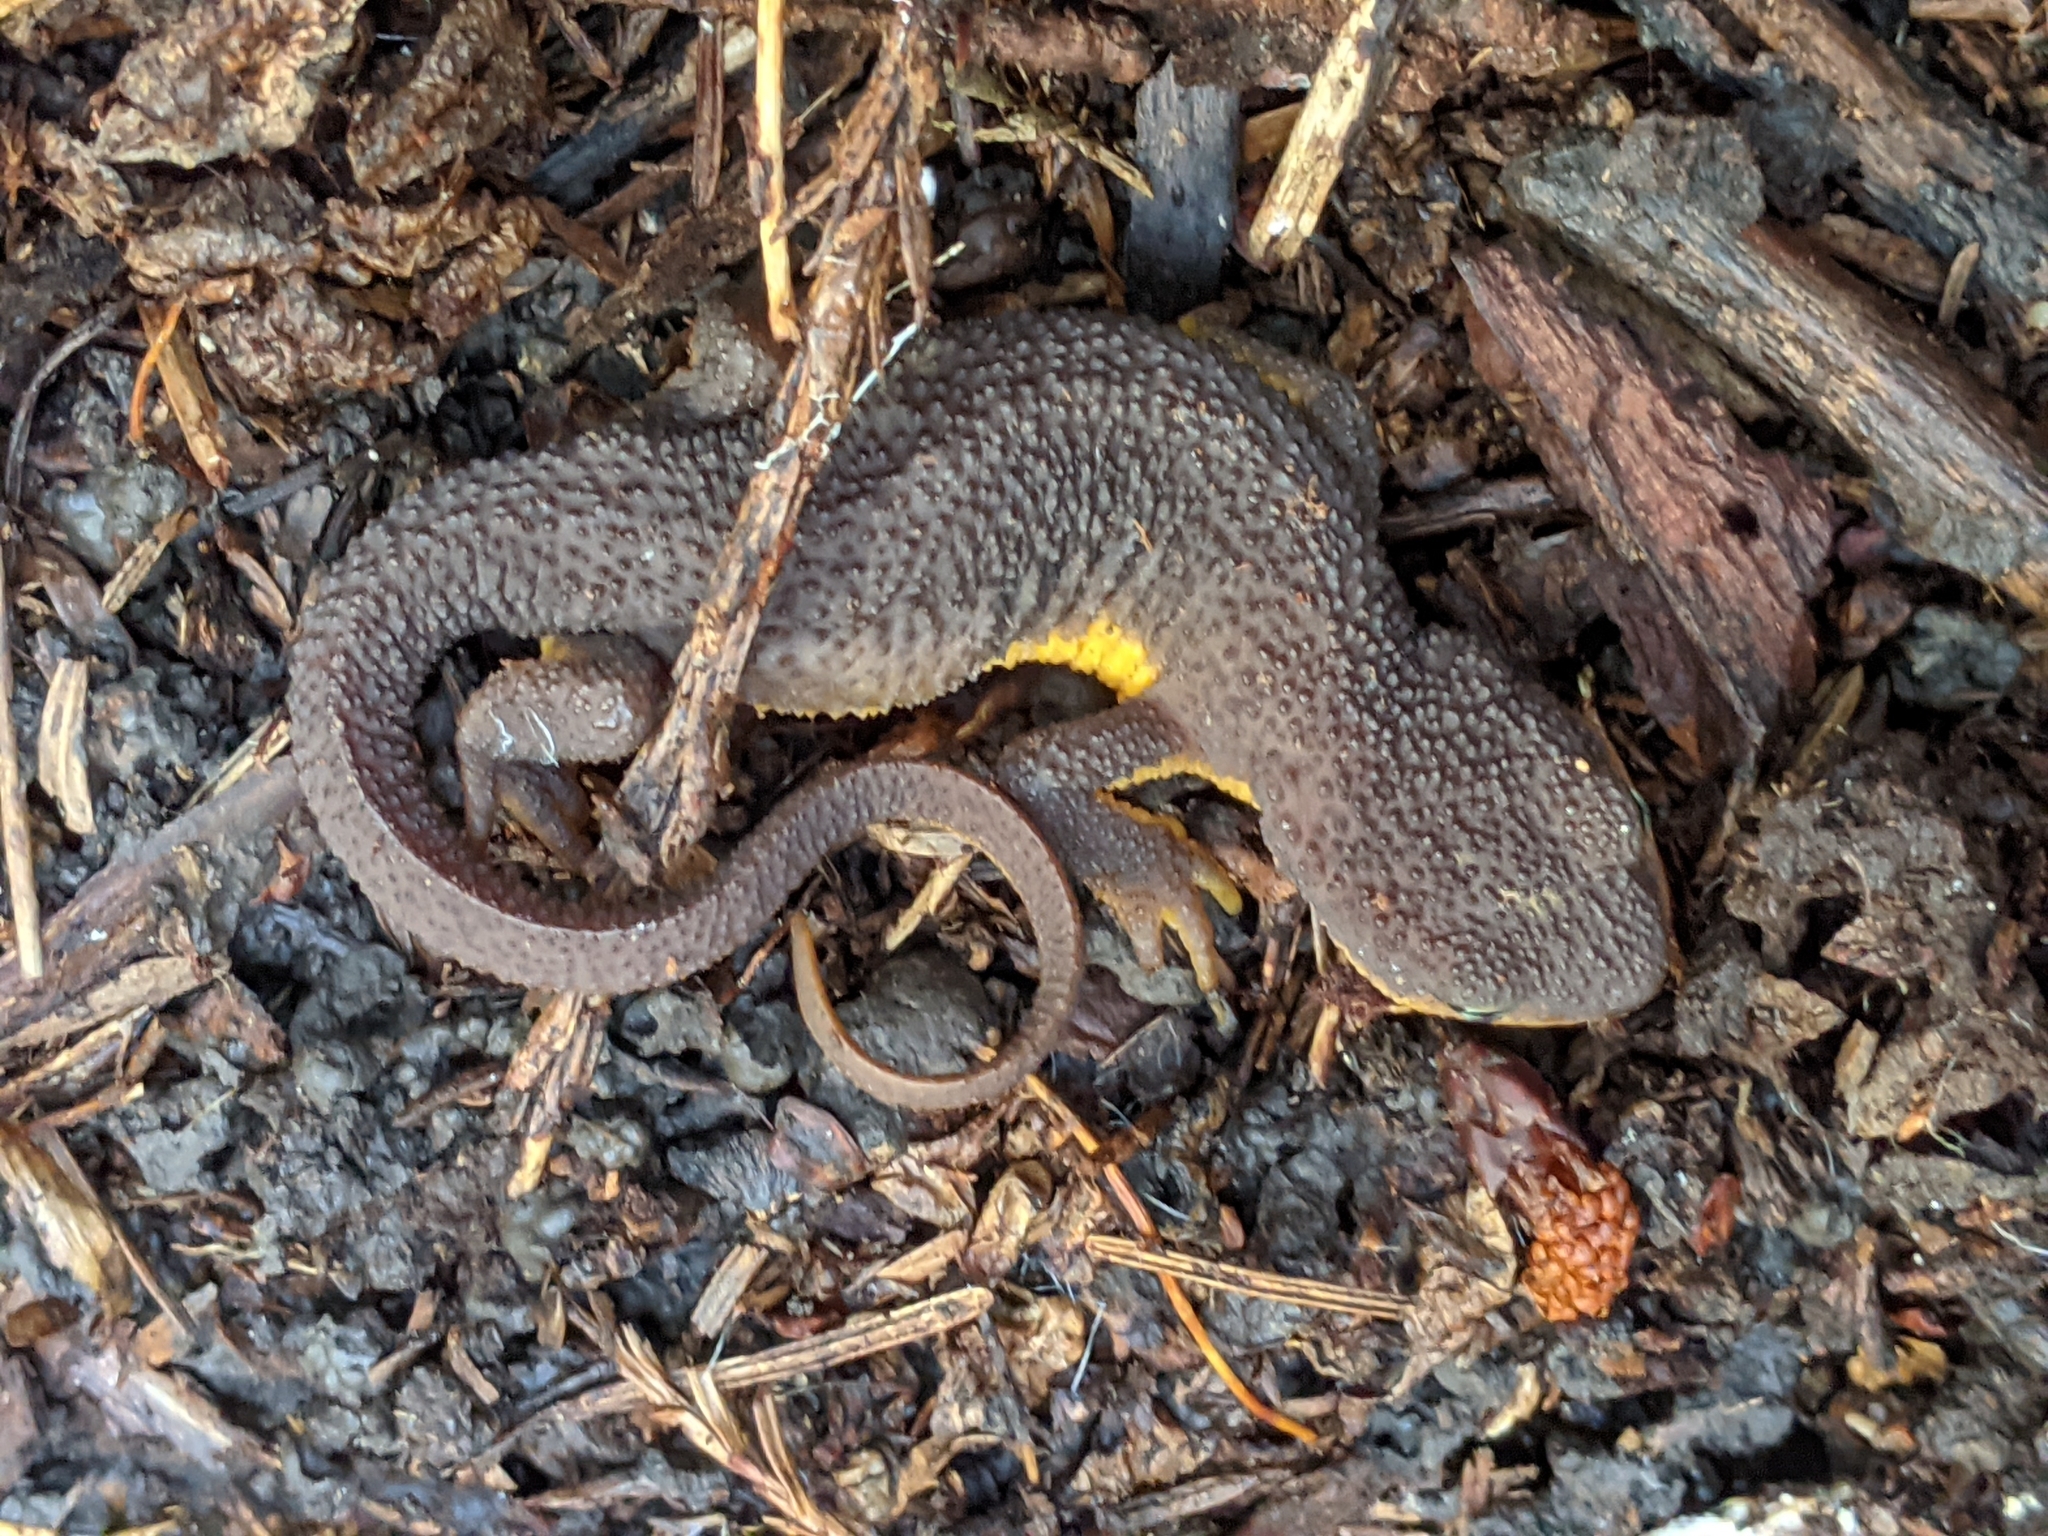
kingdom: Animalia
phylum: Chordata
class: Amphibia
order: Caudata
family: Salamandridae
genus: Taricha
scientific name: Taricha granulosa
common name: Roughskin newt
